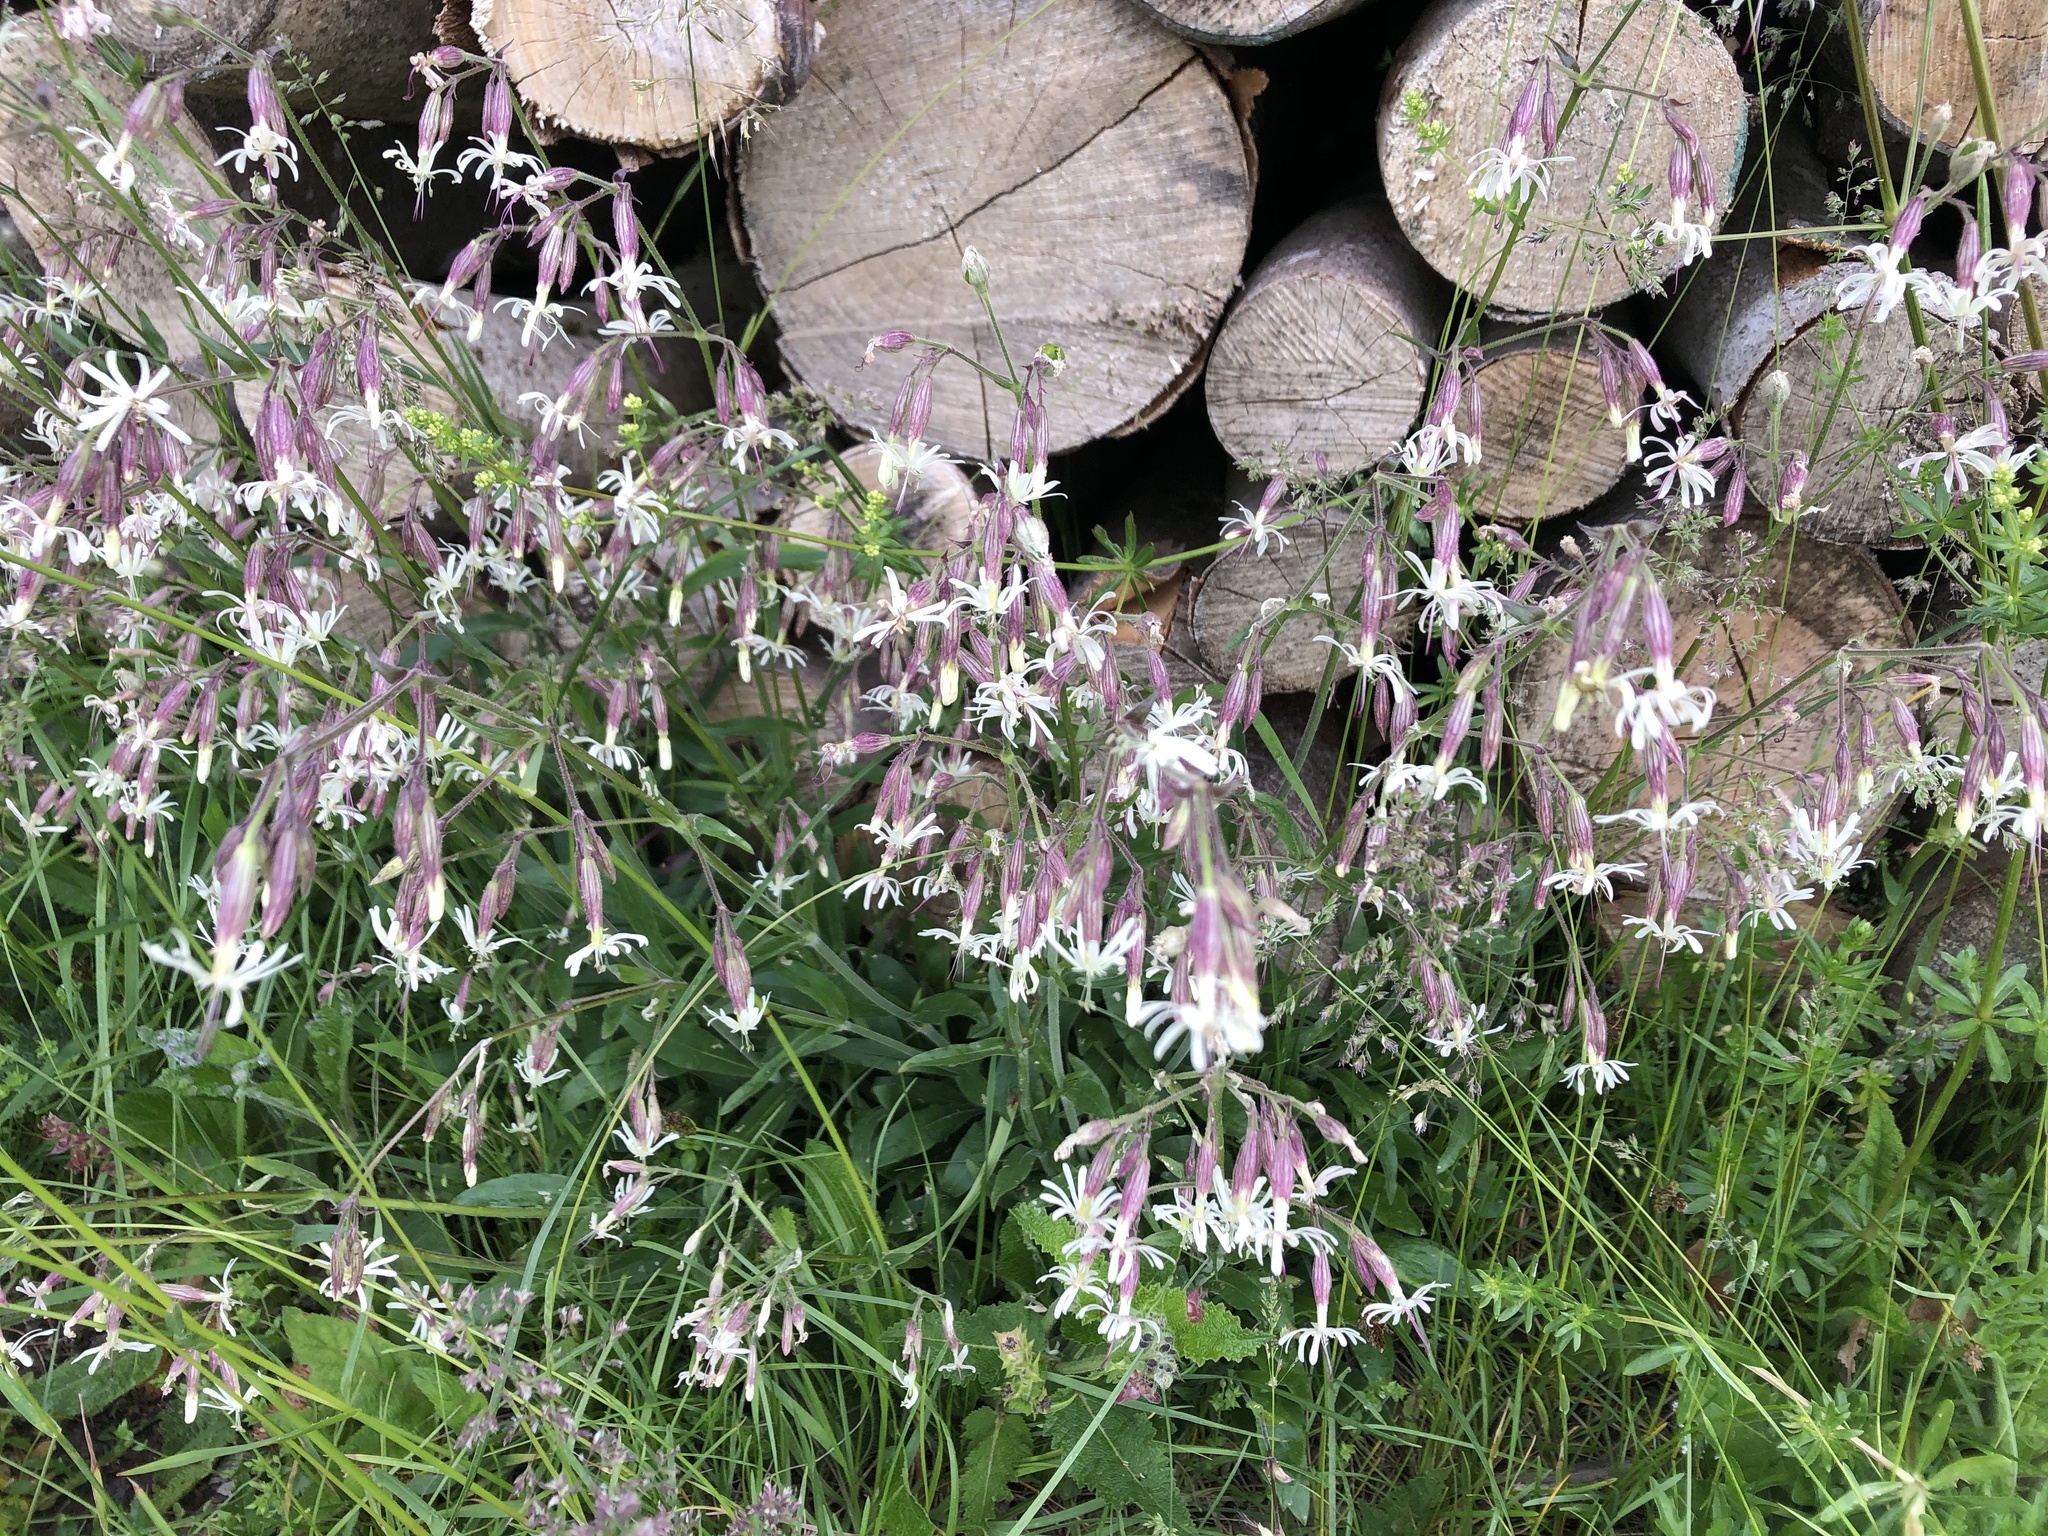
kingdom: Plantae
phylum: Tracheophyta
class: Magnoliopsida
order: Caryophyllales
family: Caryophyllaceae
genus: Silene
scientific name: Silene nutans
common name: Nottingham catchfly
